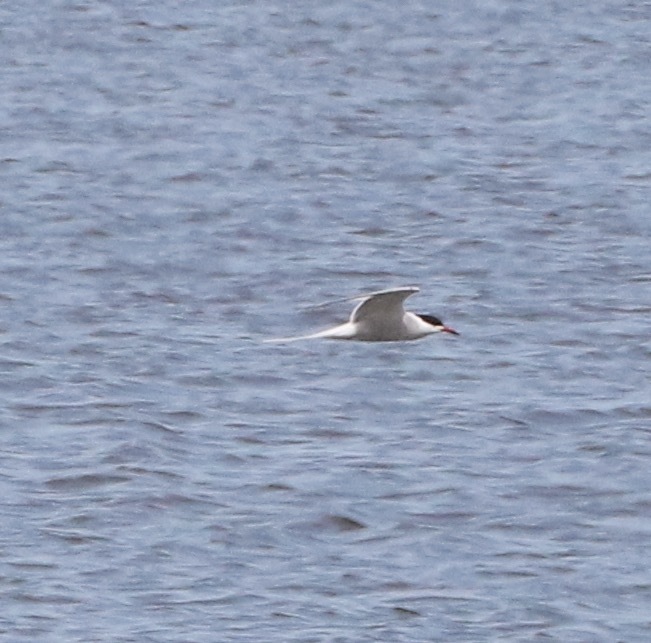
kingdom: Animalia
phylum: Chordata
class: Aves
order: Charadriiformes
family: Laridae
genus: Sterna
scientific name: Sterna hirundo
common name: Common tern
